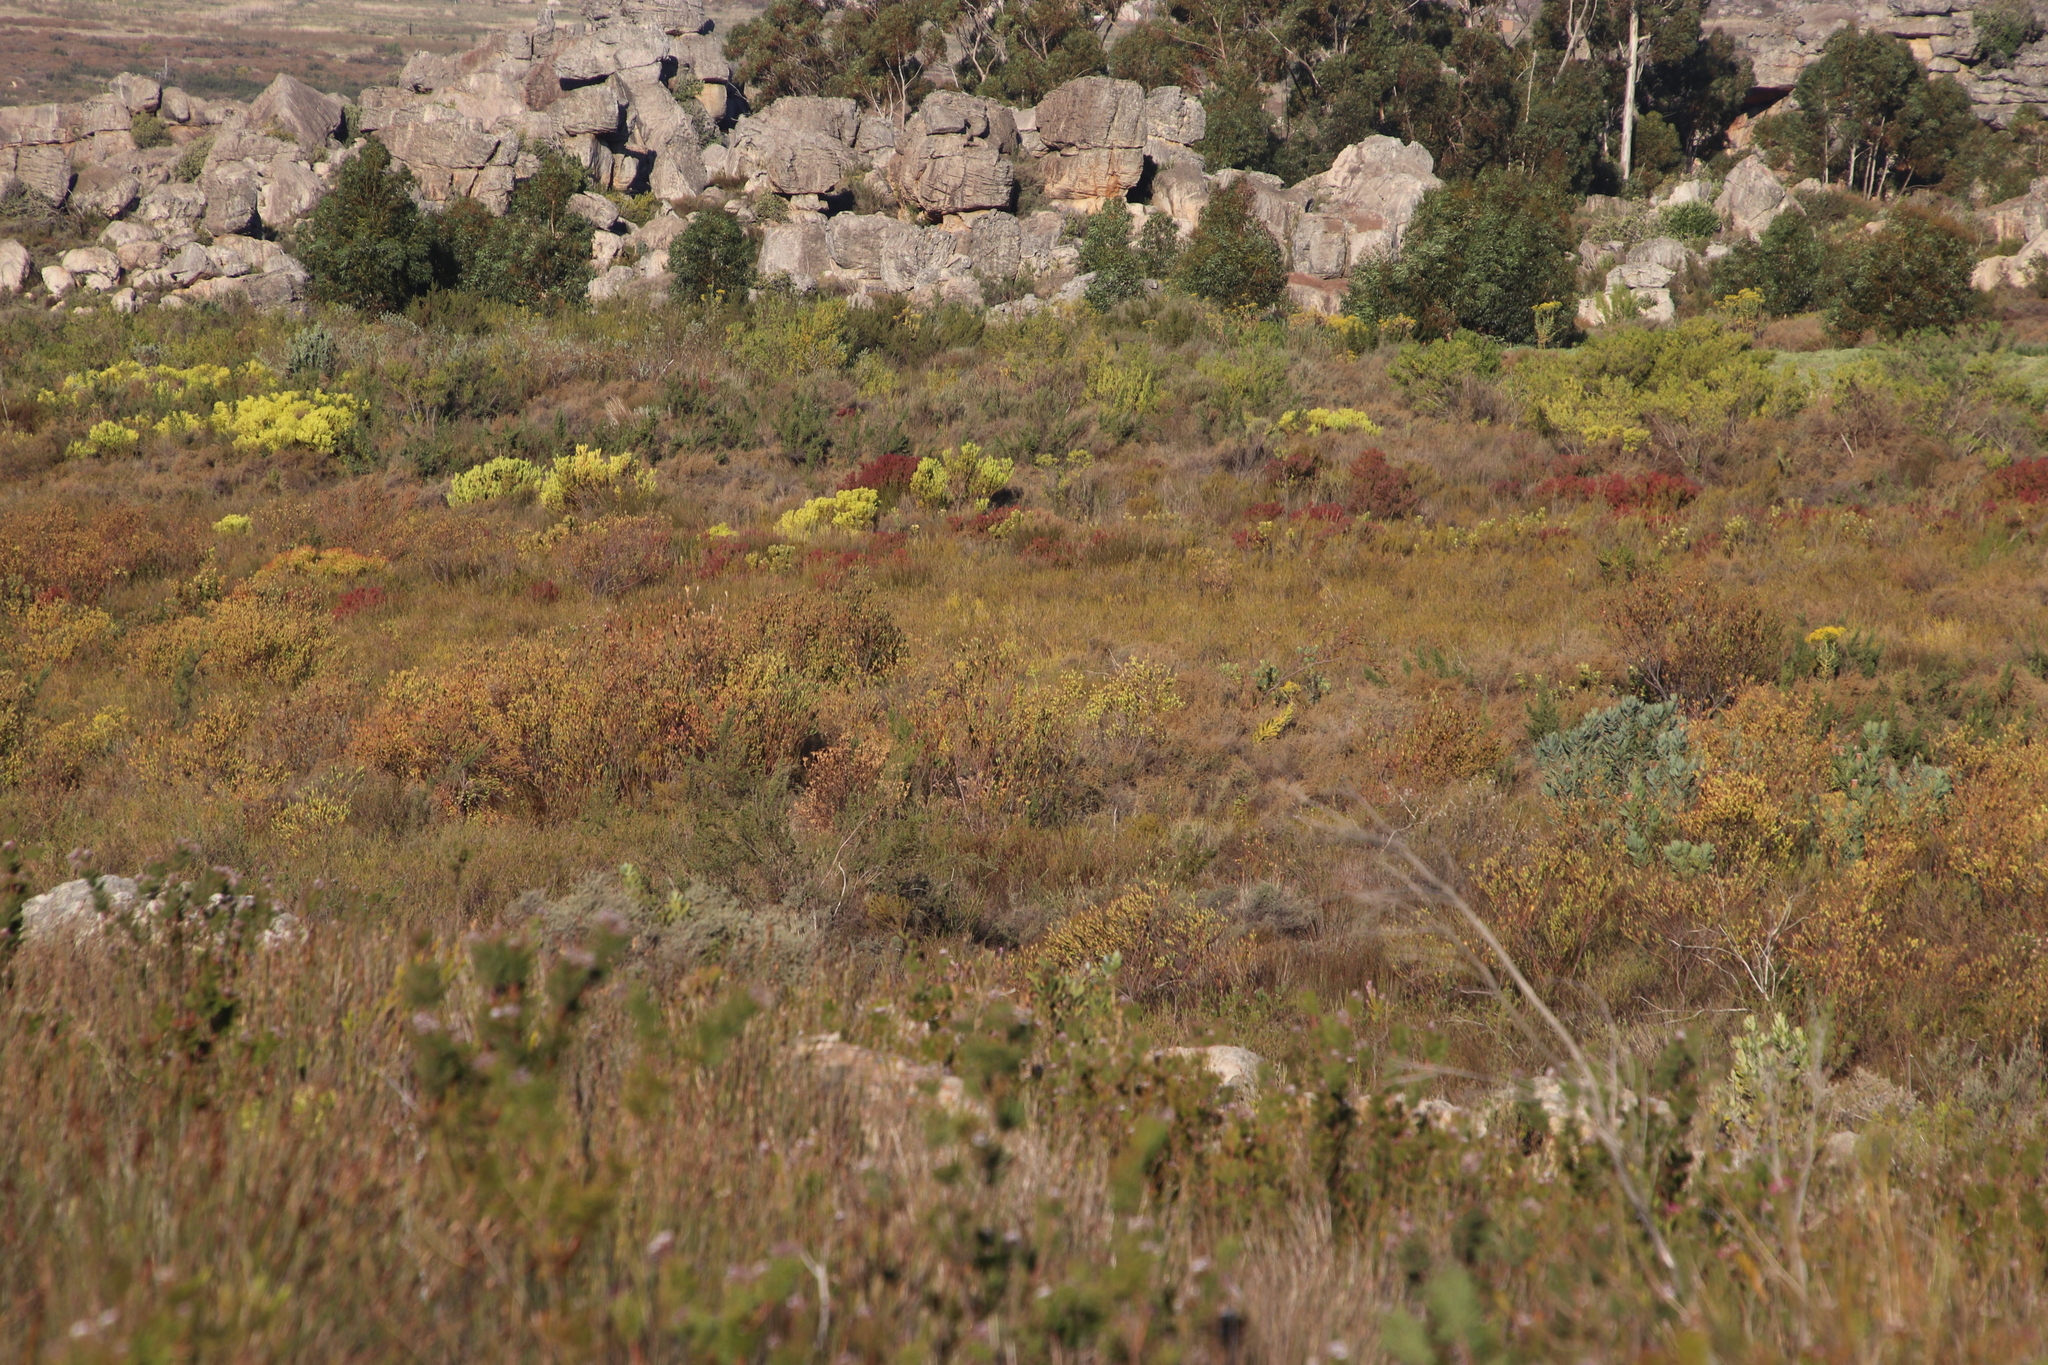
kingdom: Plantae
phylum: Tracheophyta
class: Magnoliopsida
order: Proteales
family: Proteaceae
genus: Leucadendron
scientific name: Leucadendron diemontianum
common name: Visgat conebush
